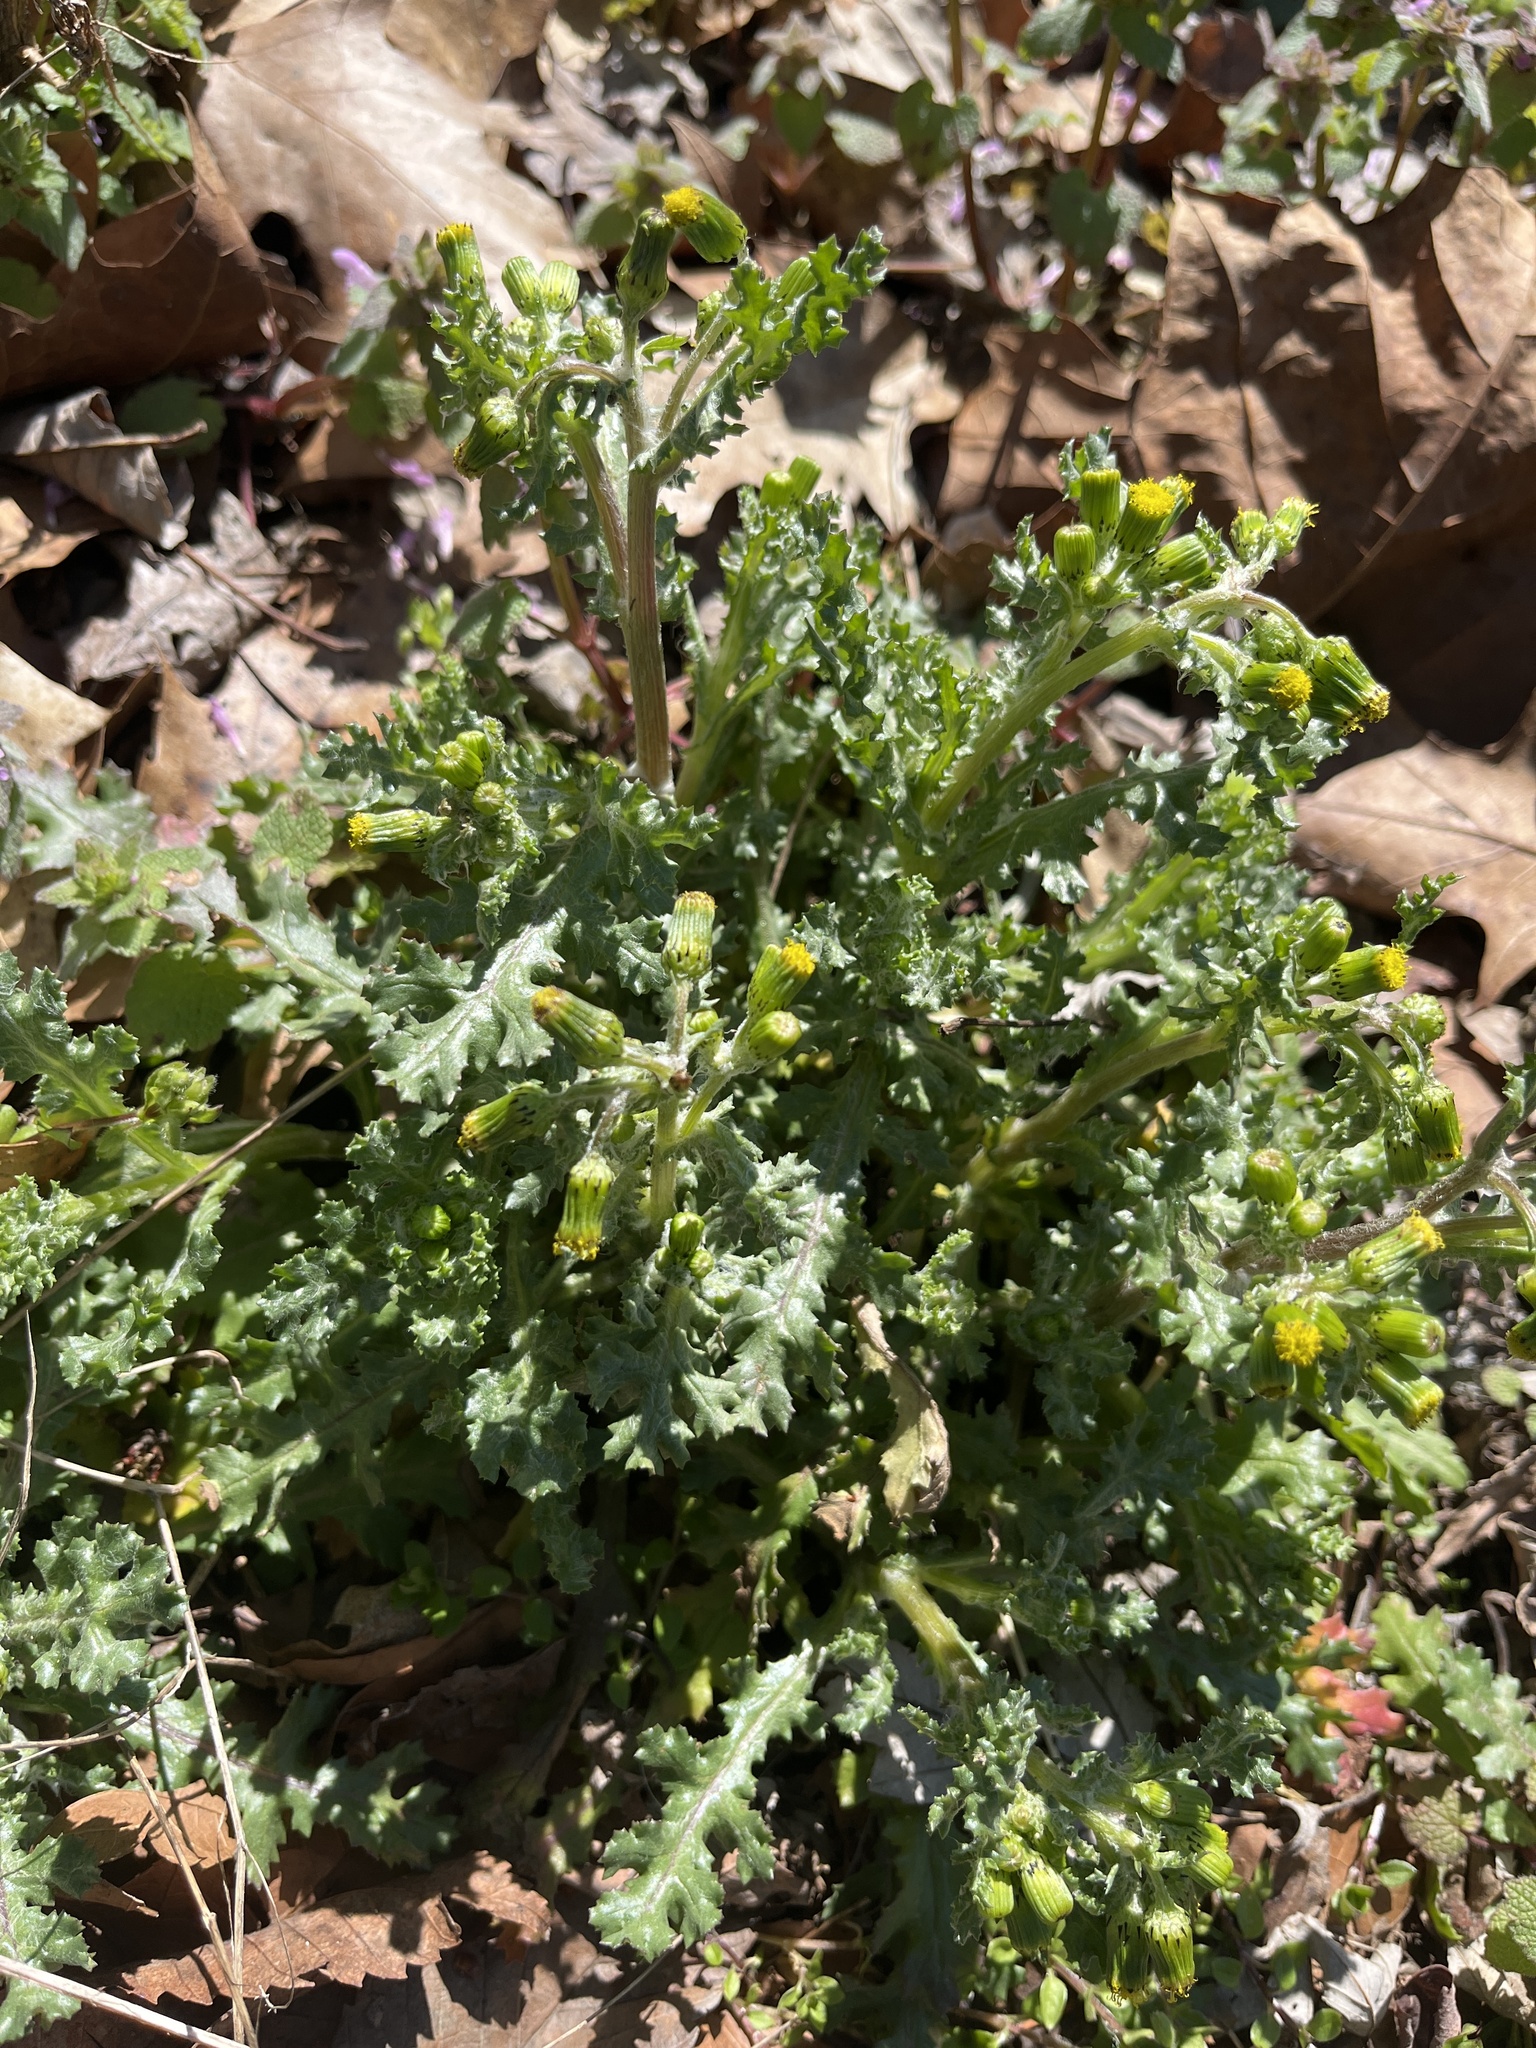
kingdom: Plantae
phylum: Tracheophyta
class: Magnoliopsida
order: Asterales
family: Asteraceae
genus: Senecio
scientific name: Senecio vulgaris
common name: Old-man-in-the-spring
